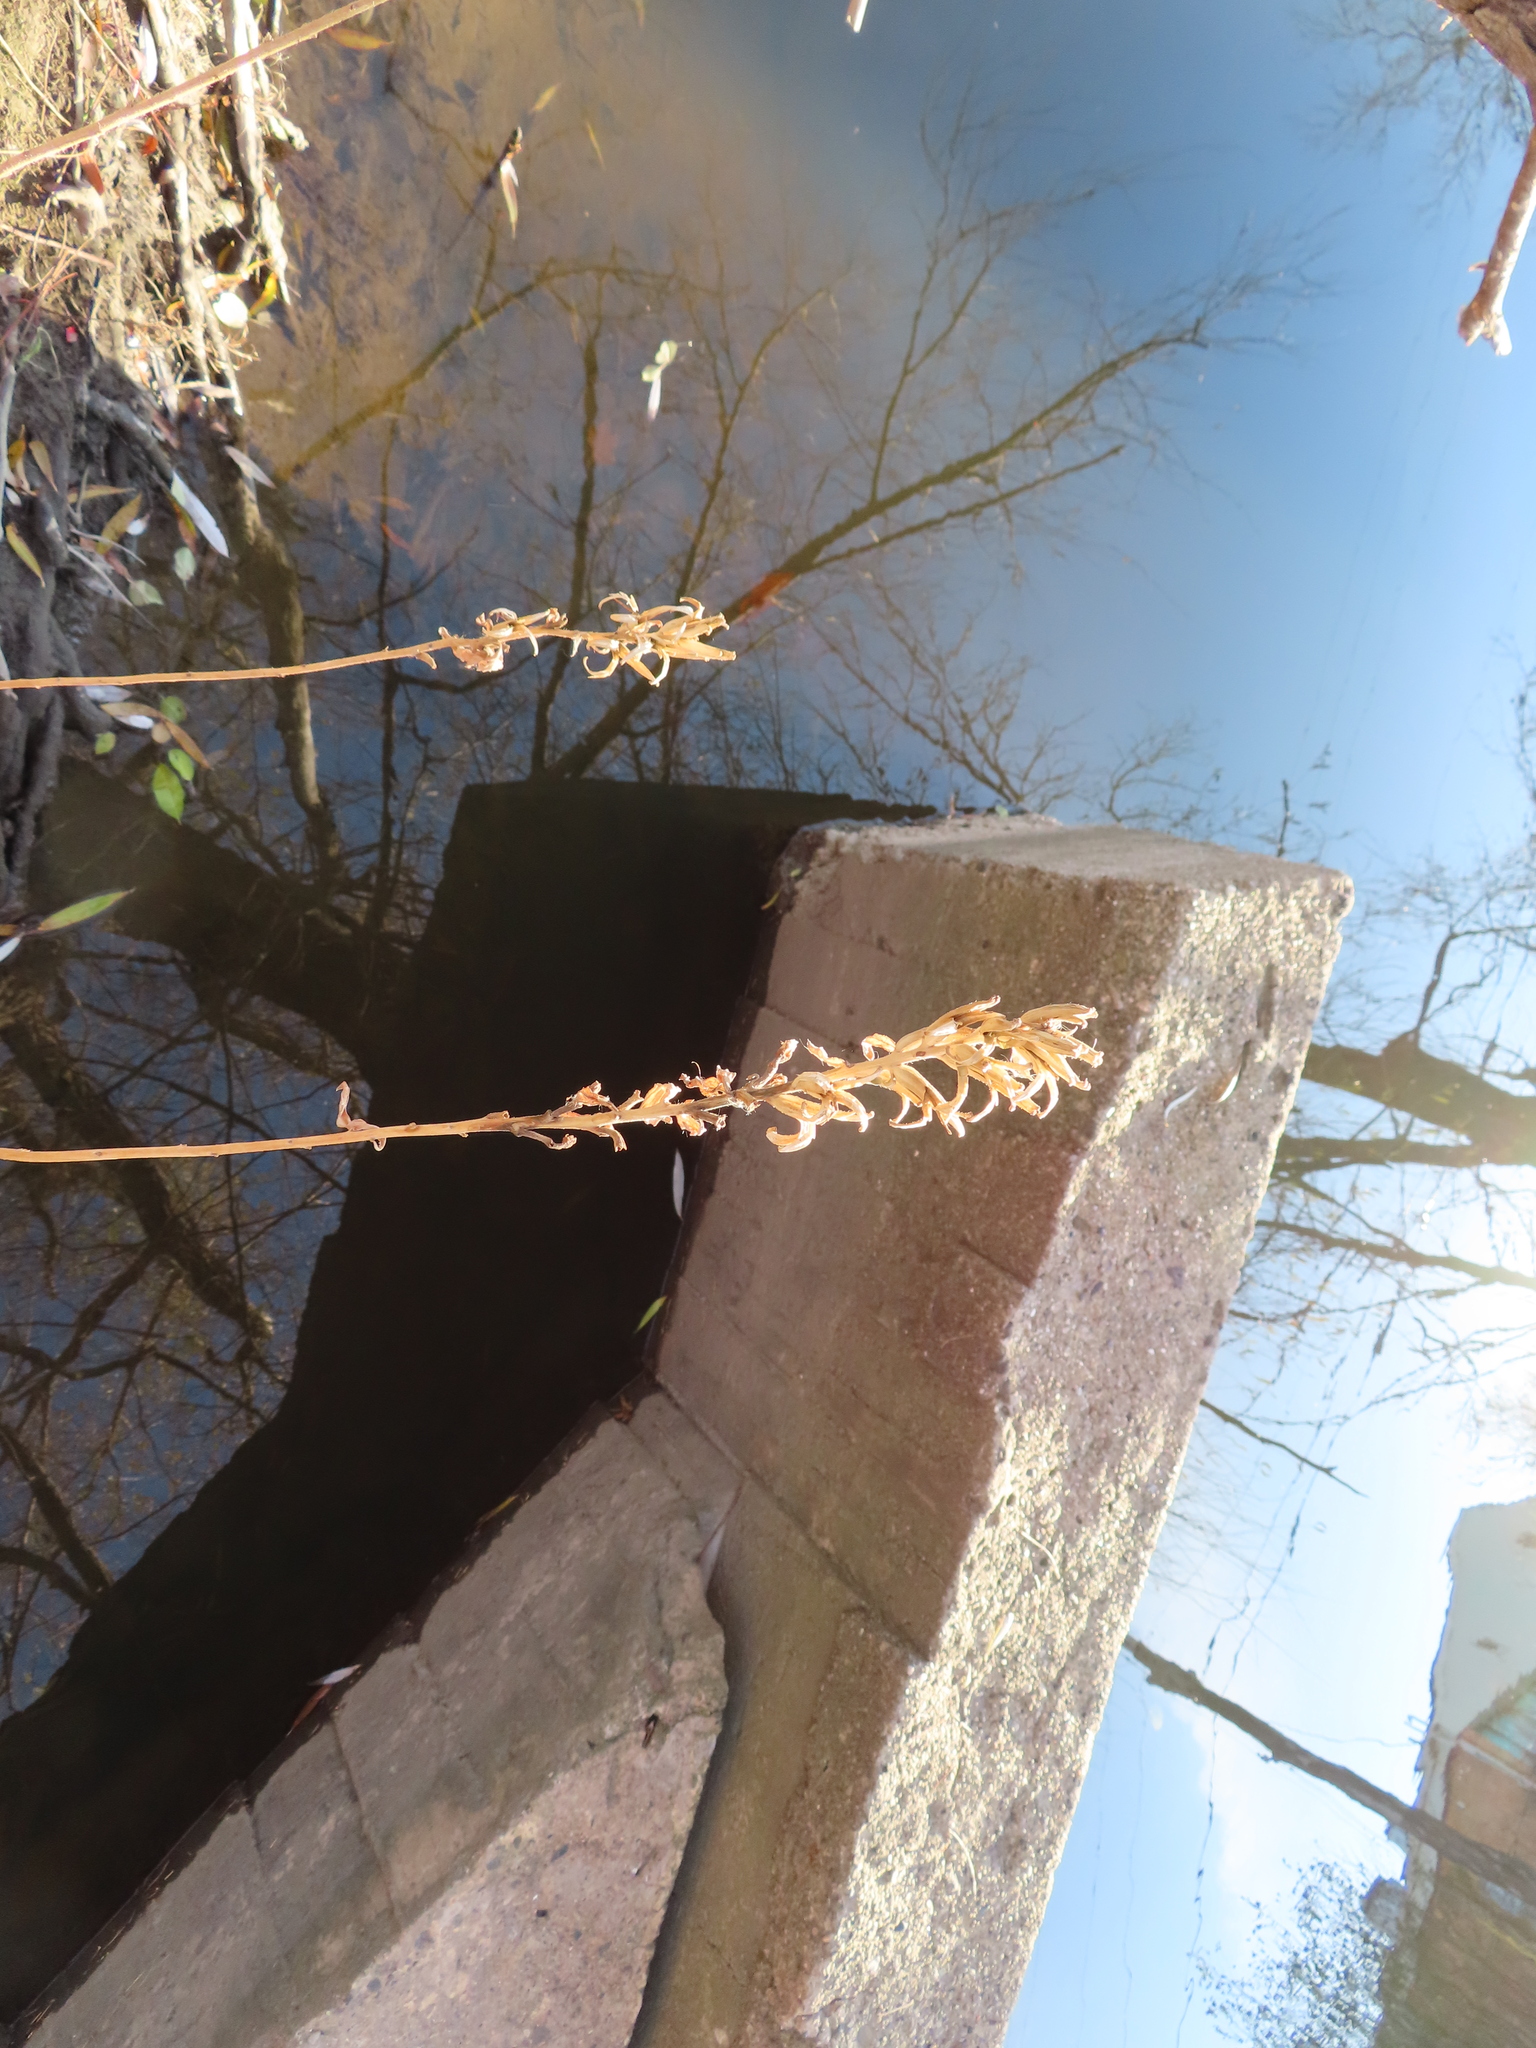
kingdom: Plantae
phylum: Tracheophyta
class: Magnoliopsida
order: Myrtales
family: Onagraceae
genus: Oenothera
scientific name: Oenothera biennis
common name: Common evening-primrose
